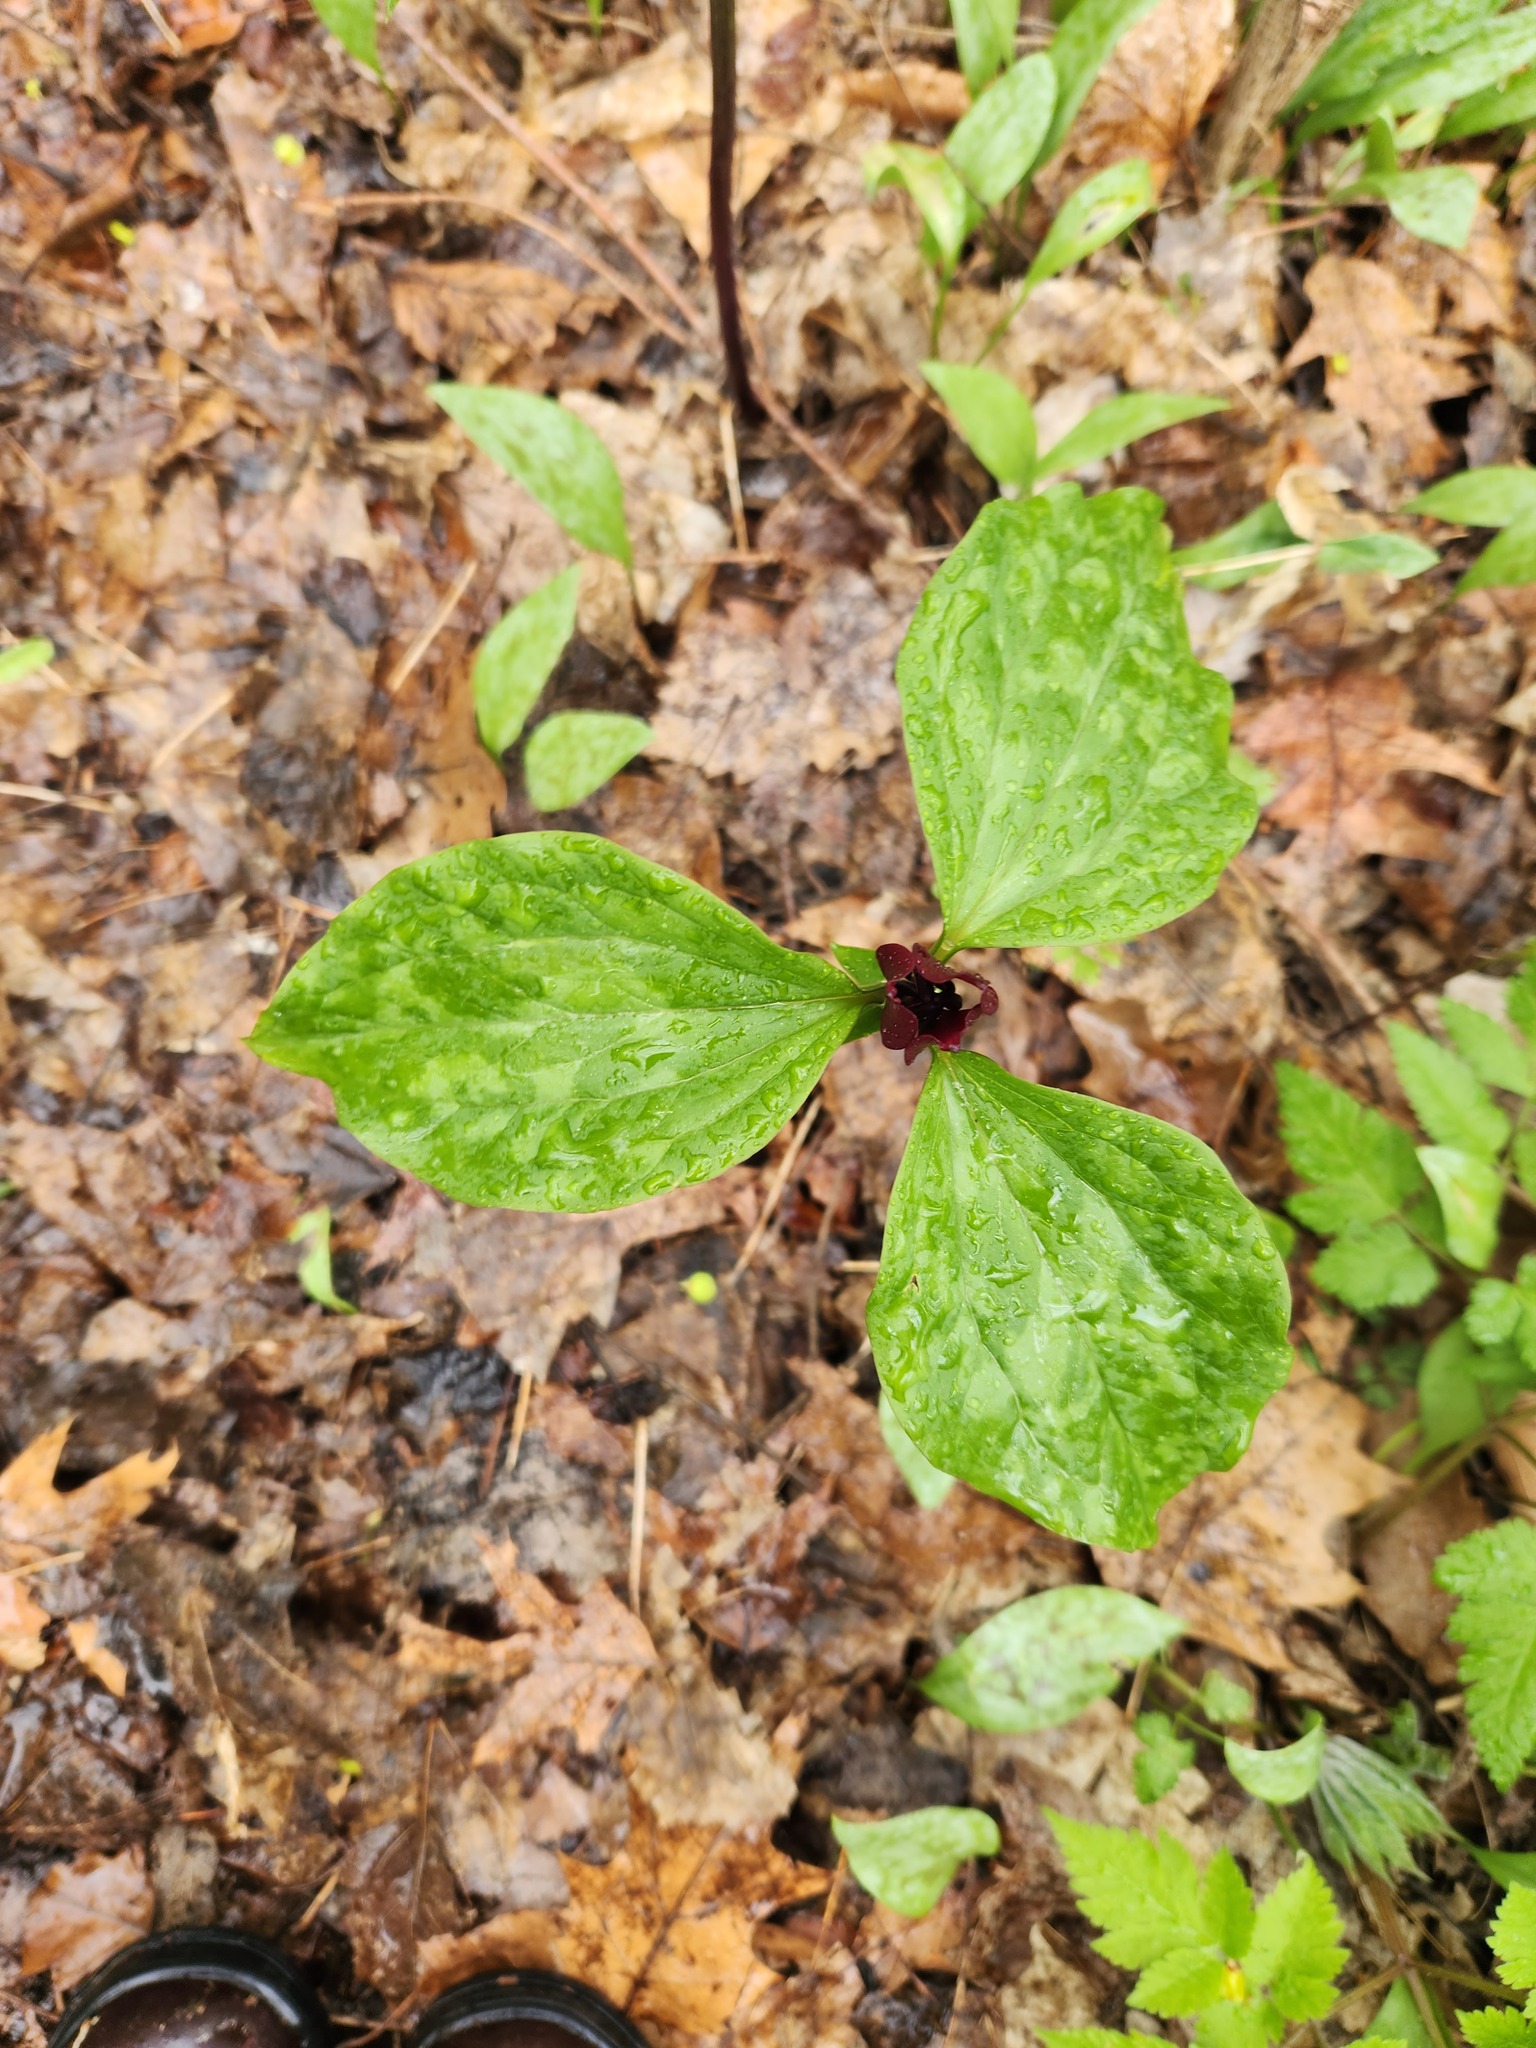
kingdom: Plantae
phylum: Tracheophyta
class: Liliopsida
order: Liliales
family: Melanthiaceae
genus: Trillium
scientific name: Trillium recurvatum
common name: Bloody butcher
